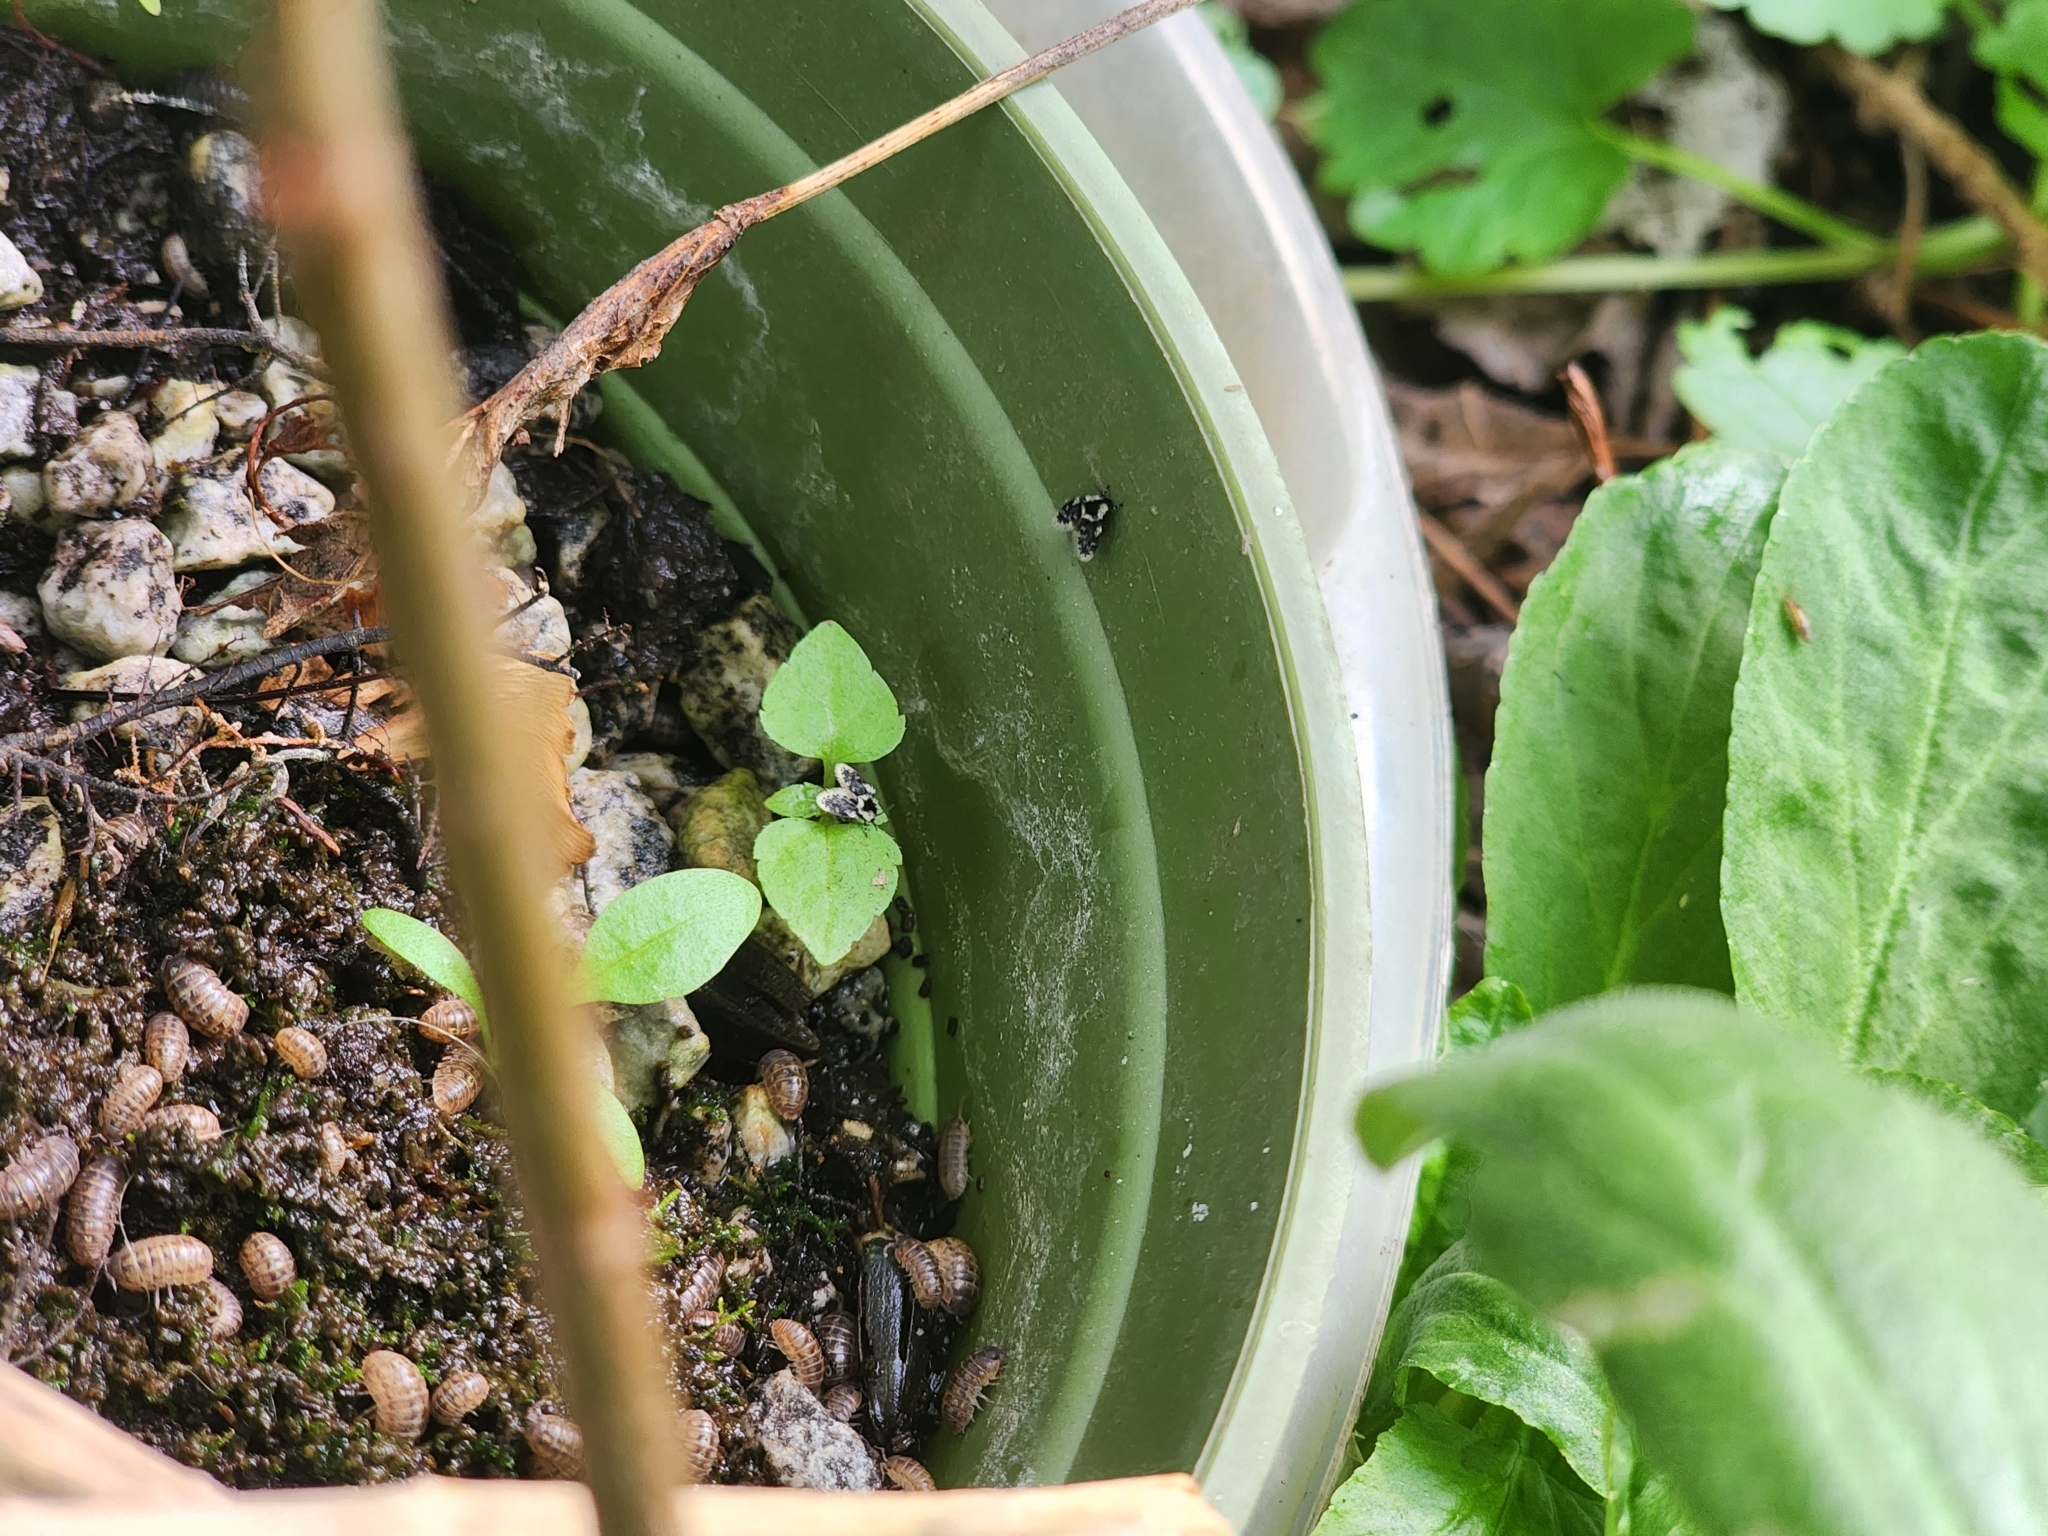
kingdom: Animalia
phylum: Arthropoda
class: Insecta
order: Diptera
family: Psychodidae
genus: Lepiseodina
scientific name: Lepiseodina
